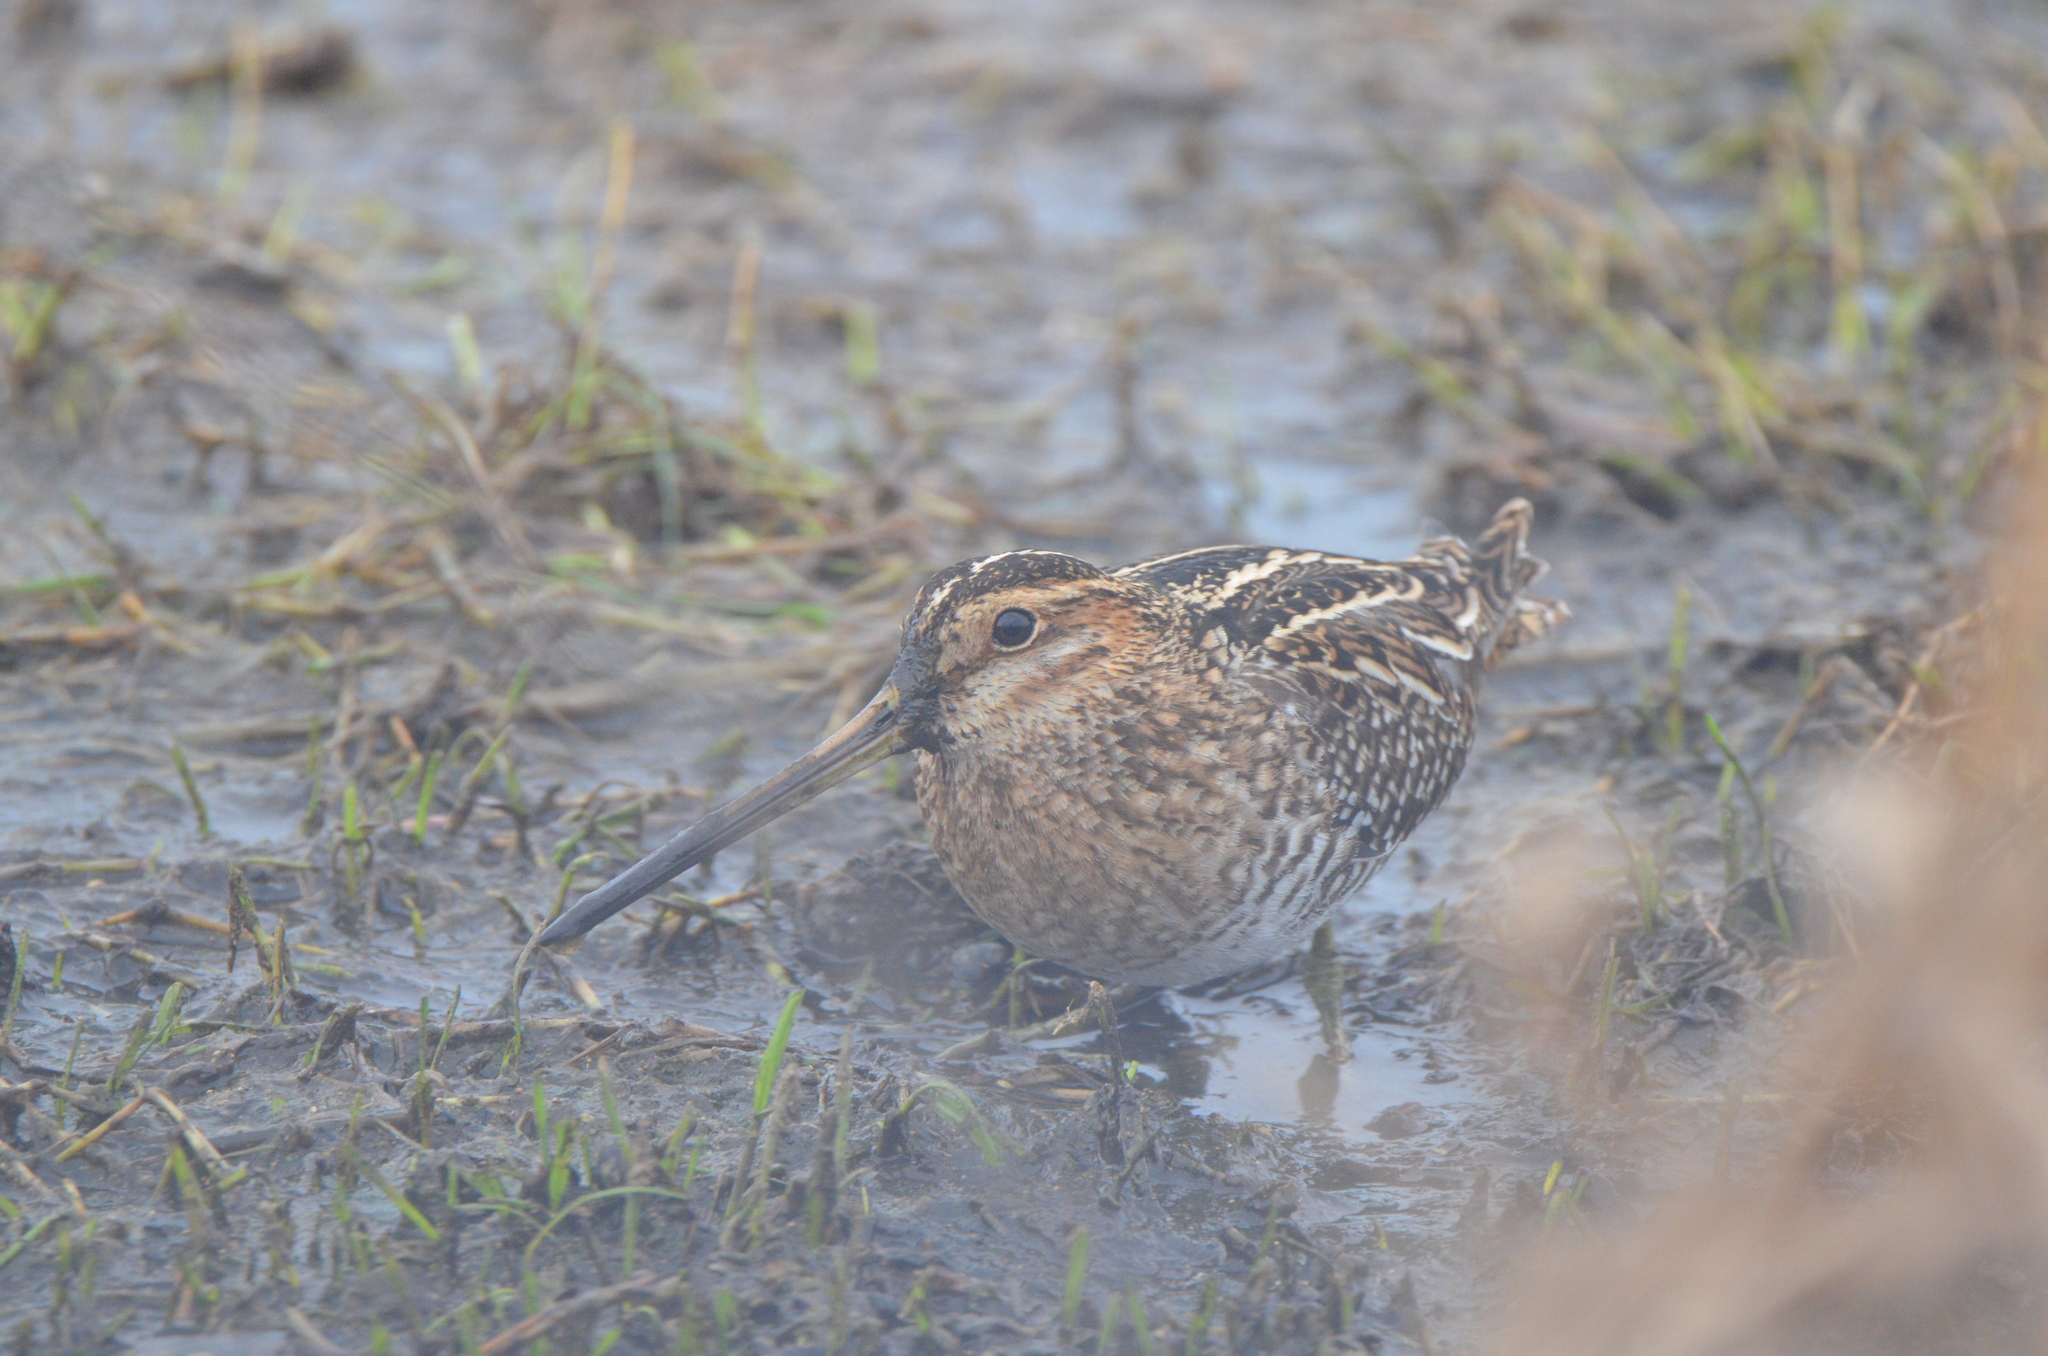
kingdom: Animalia
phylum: Chordata
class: Aves
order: Charadriiformes
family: Scolopacidae
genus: Gallinago
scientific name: Gallinago delicata
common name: Wilson's snipe
